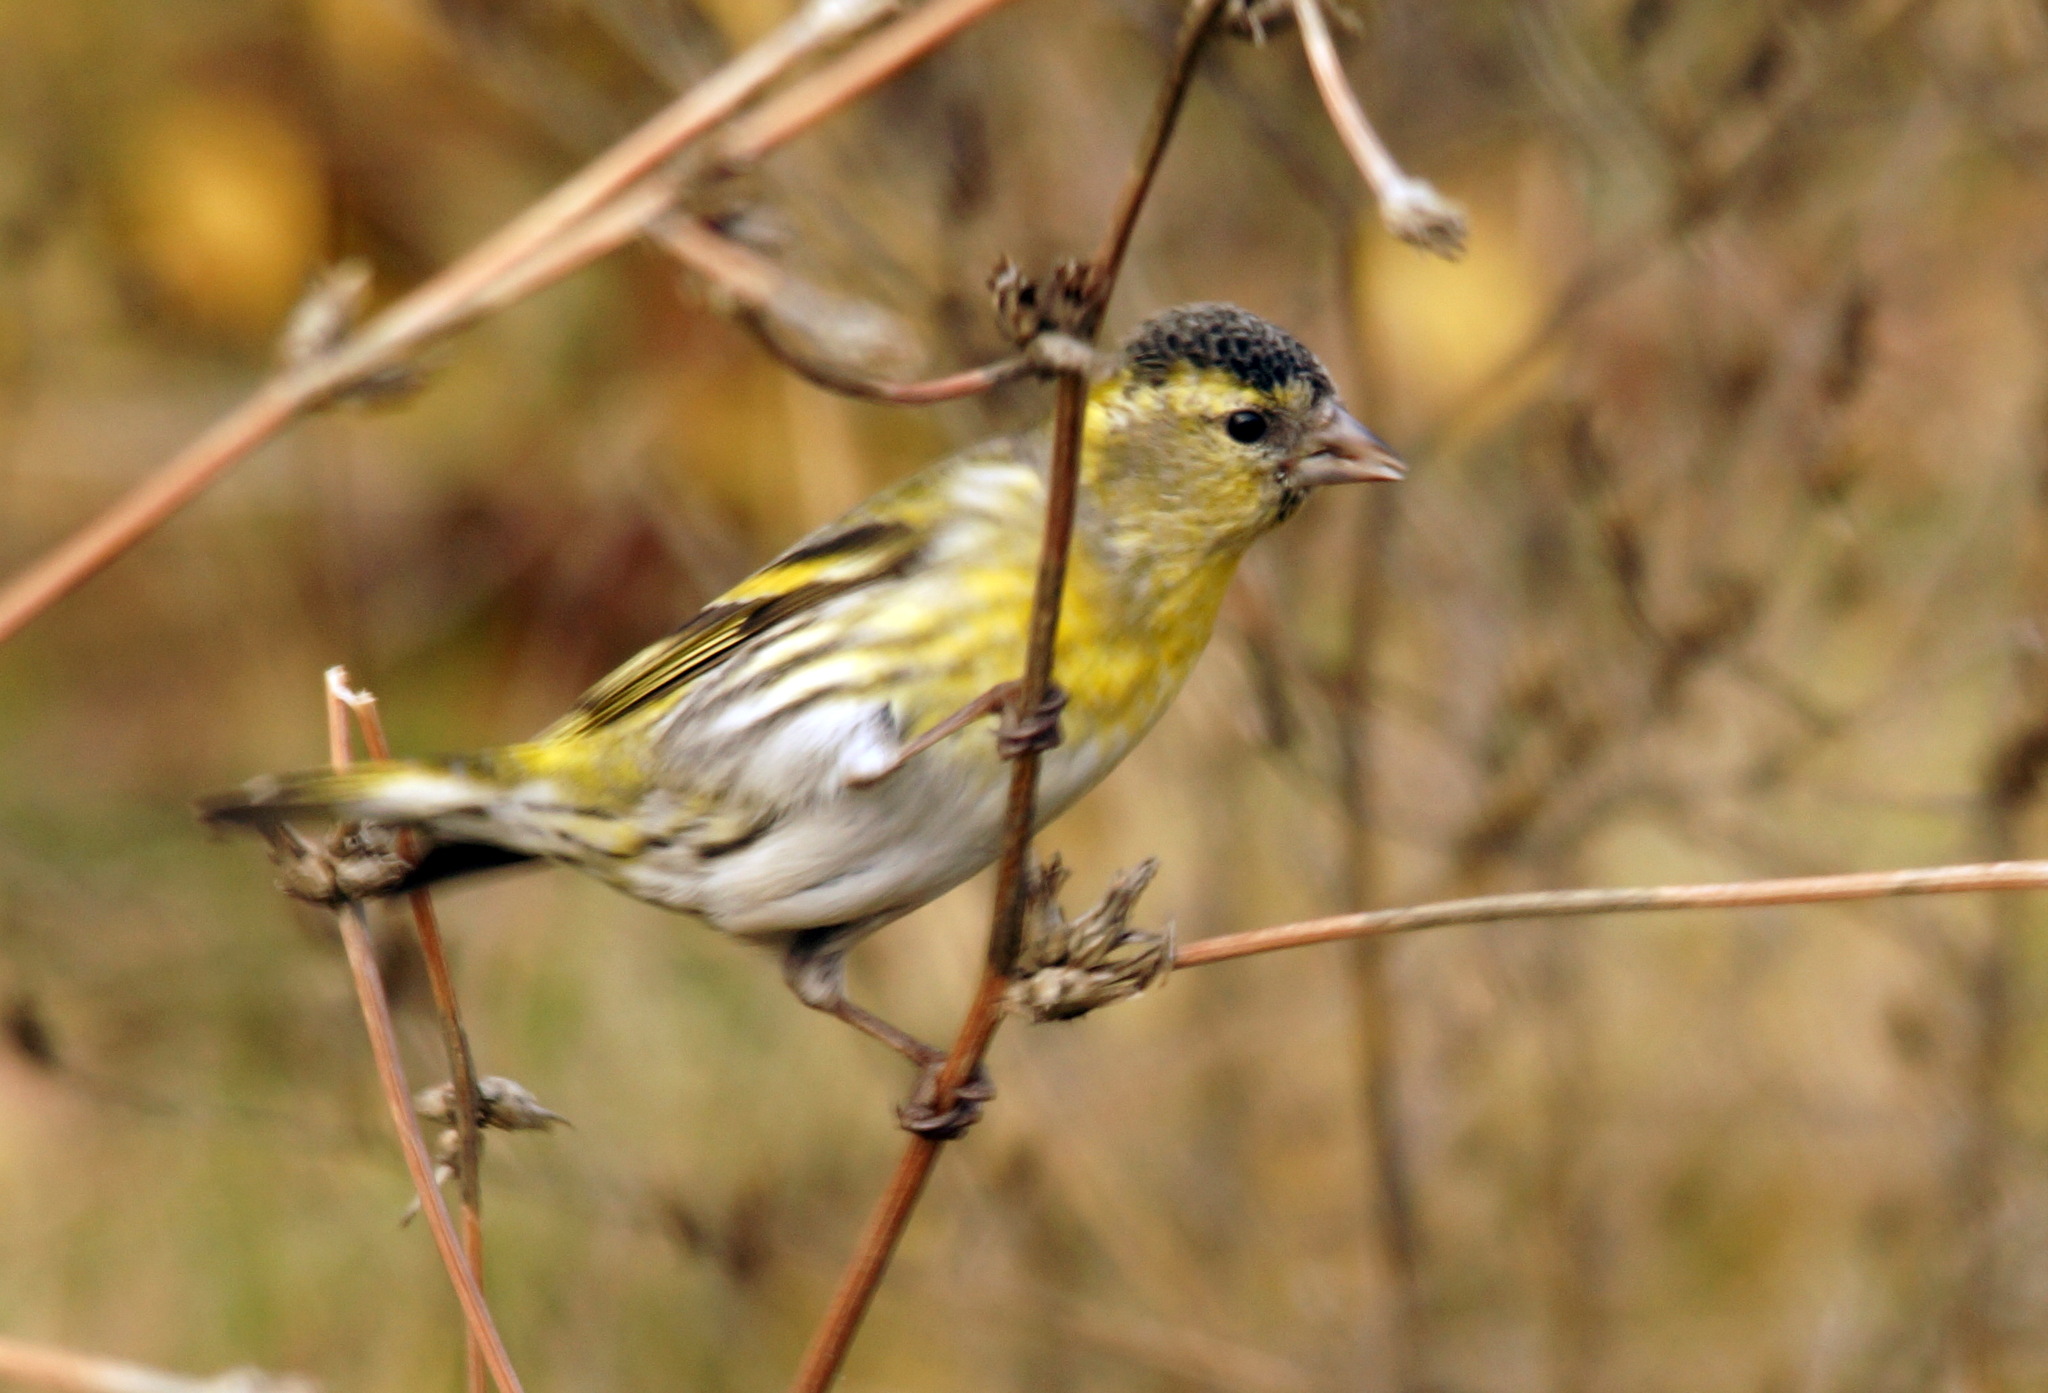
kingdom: Animalia
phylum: Chordata
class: Aves
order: Passeriformes
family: Fringillidae
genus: Spinus
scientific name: Spinus spinus
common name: Eurasian siskin
